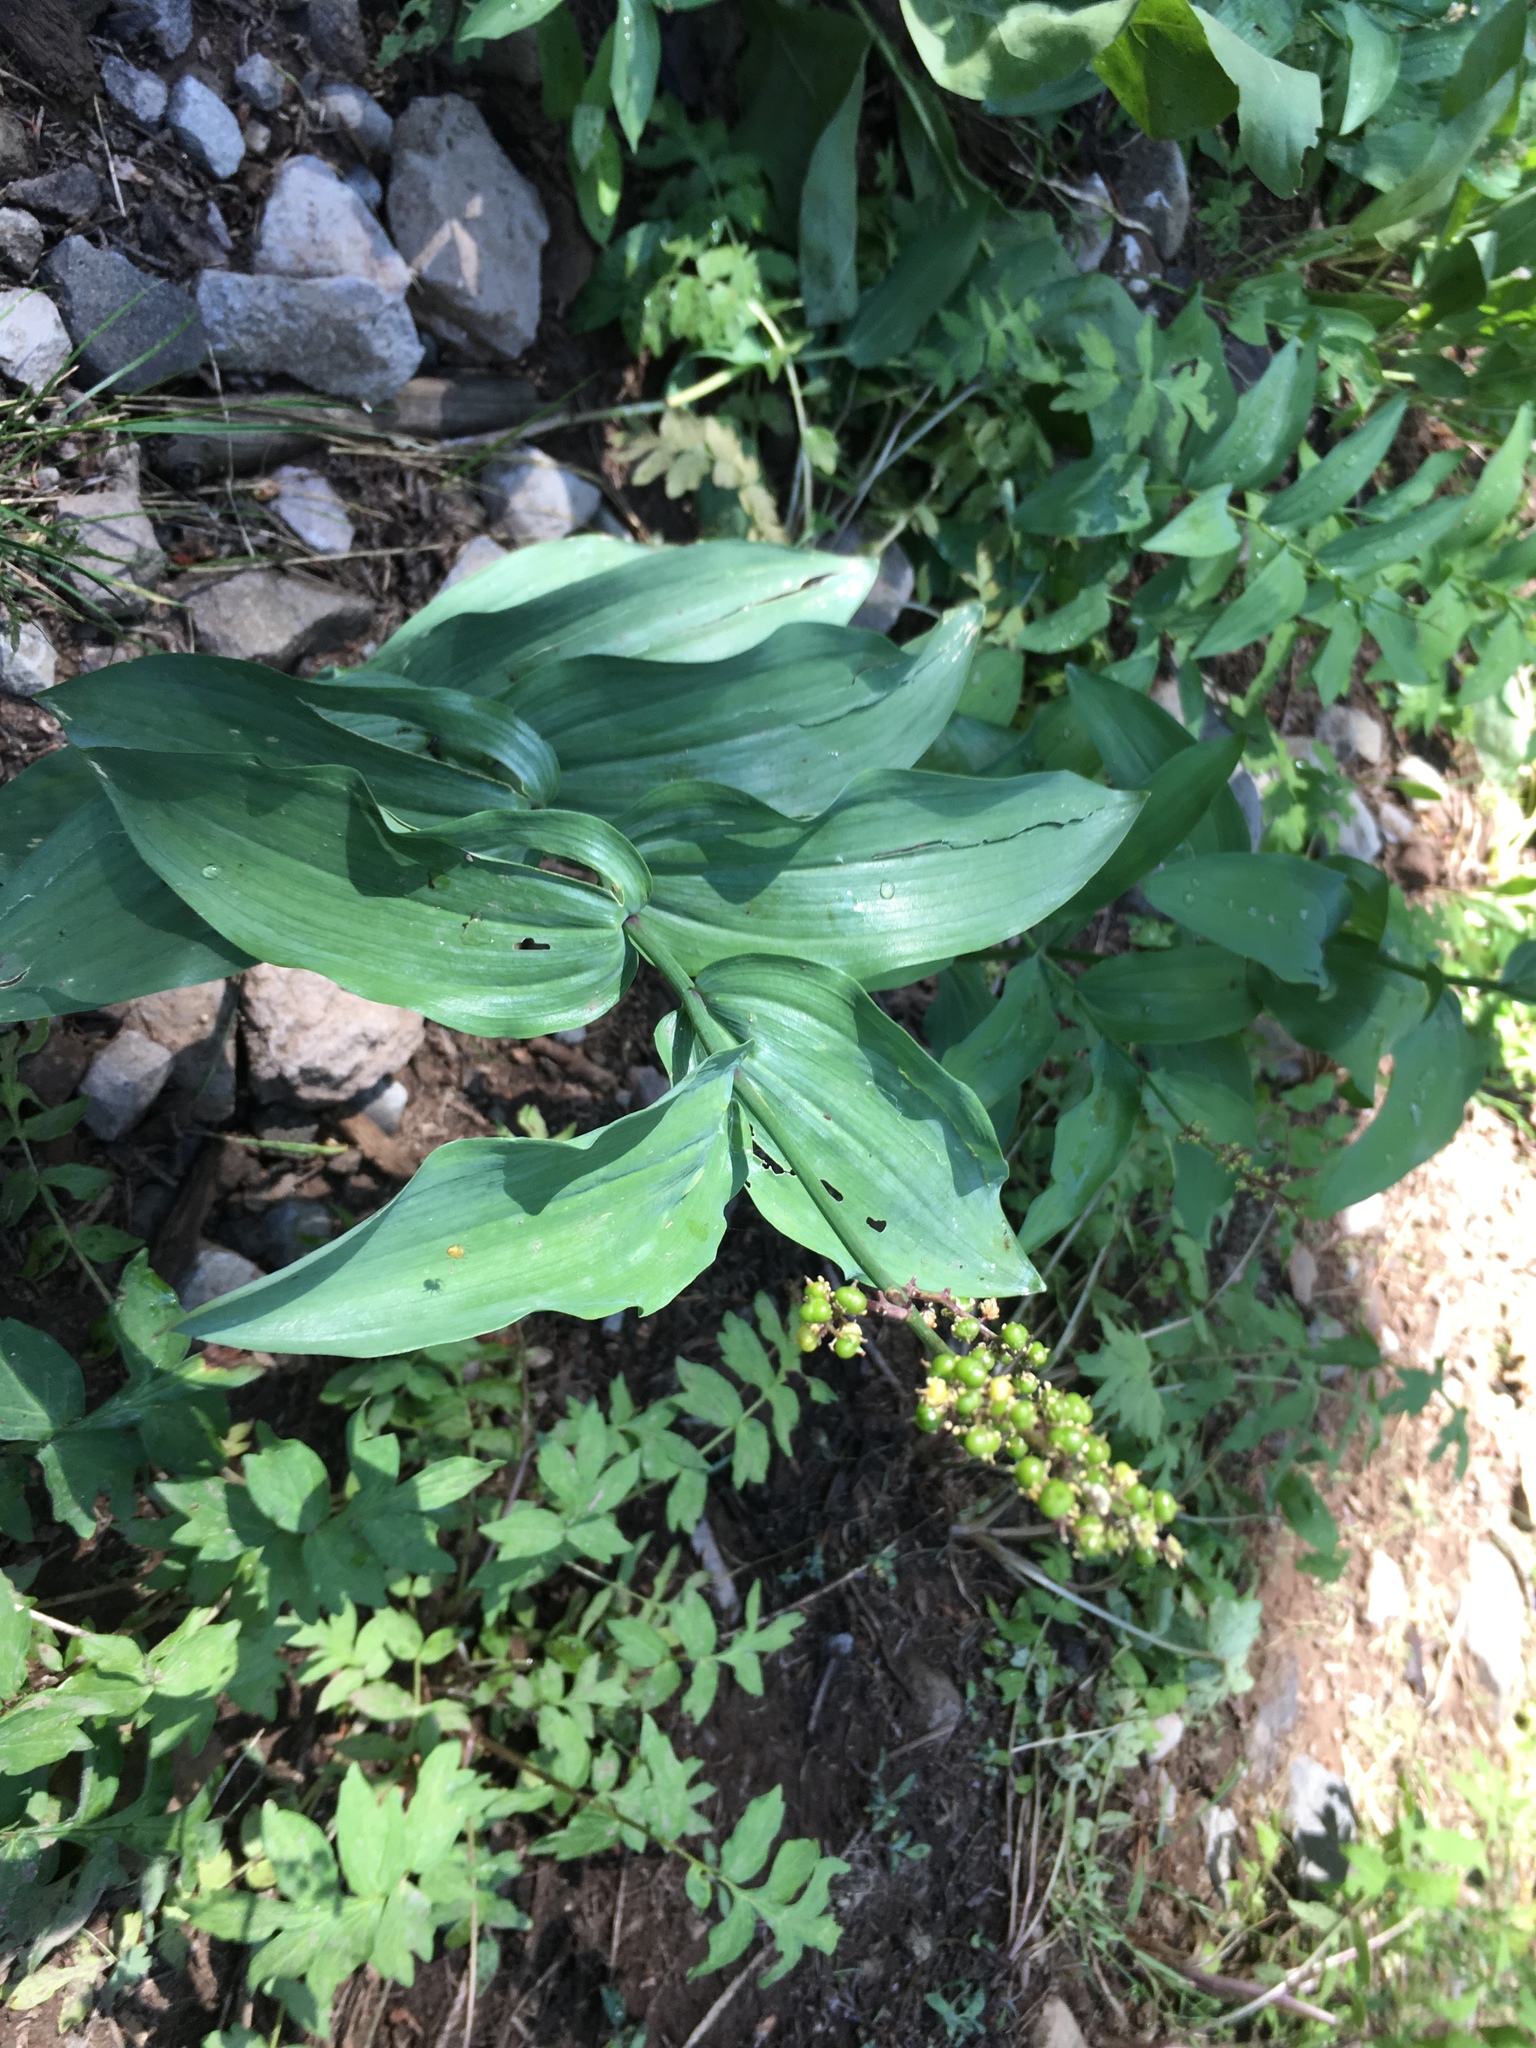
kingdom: Plantae
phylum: Tracheophyta
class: Liliopsida
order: Asparagales
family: Asparagaceae
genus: Maianthemum
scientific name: Maianthemum racemosum
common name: False spikenard
